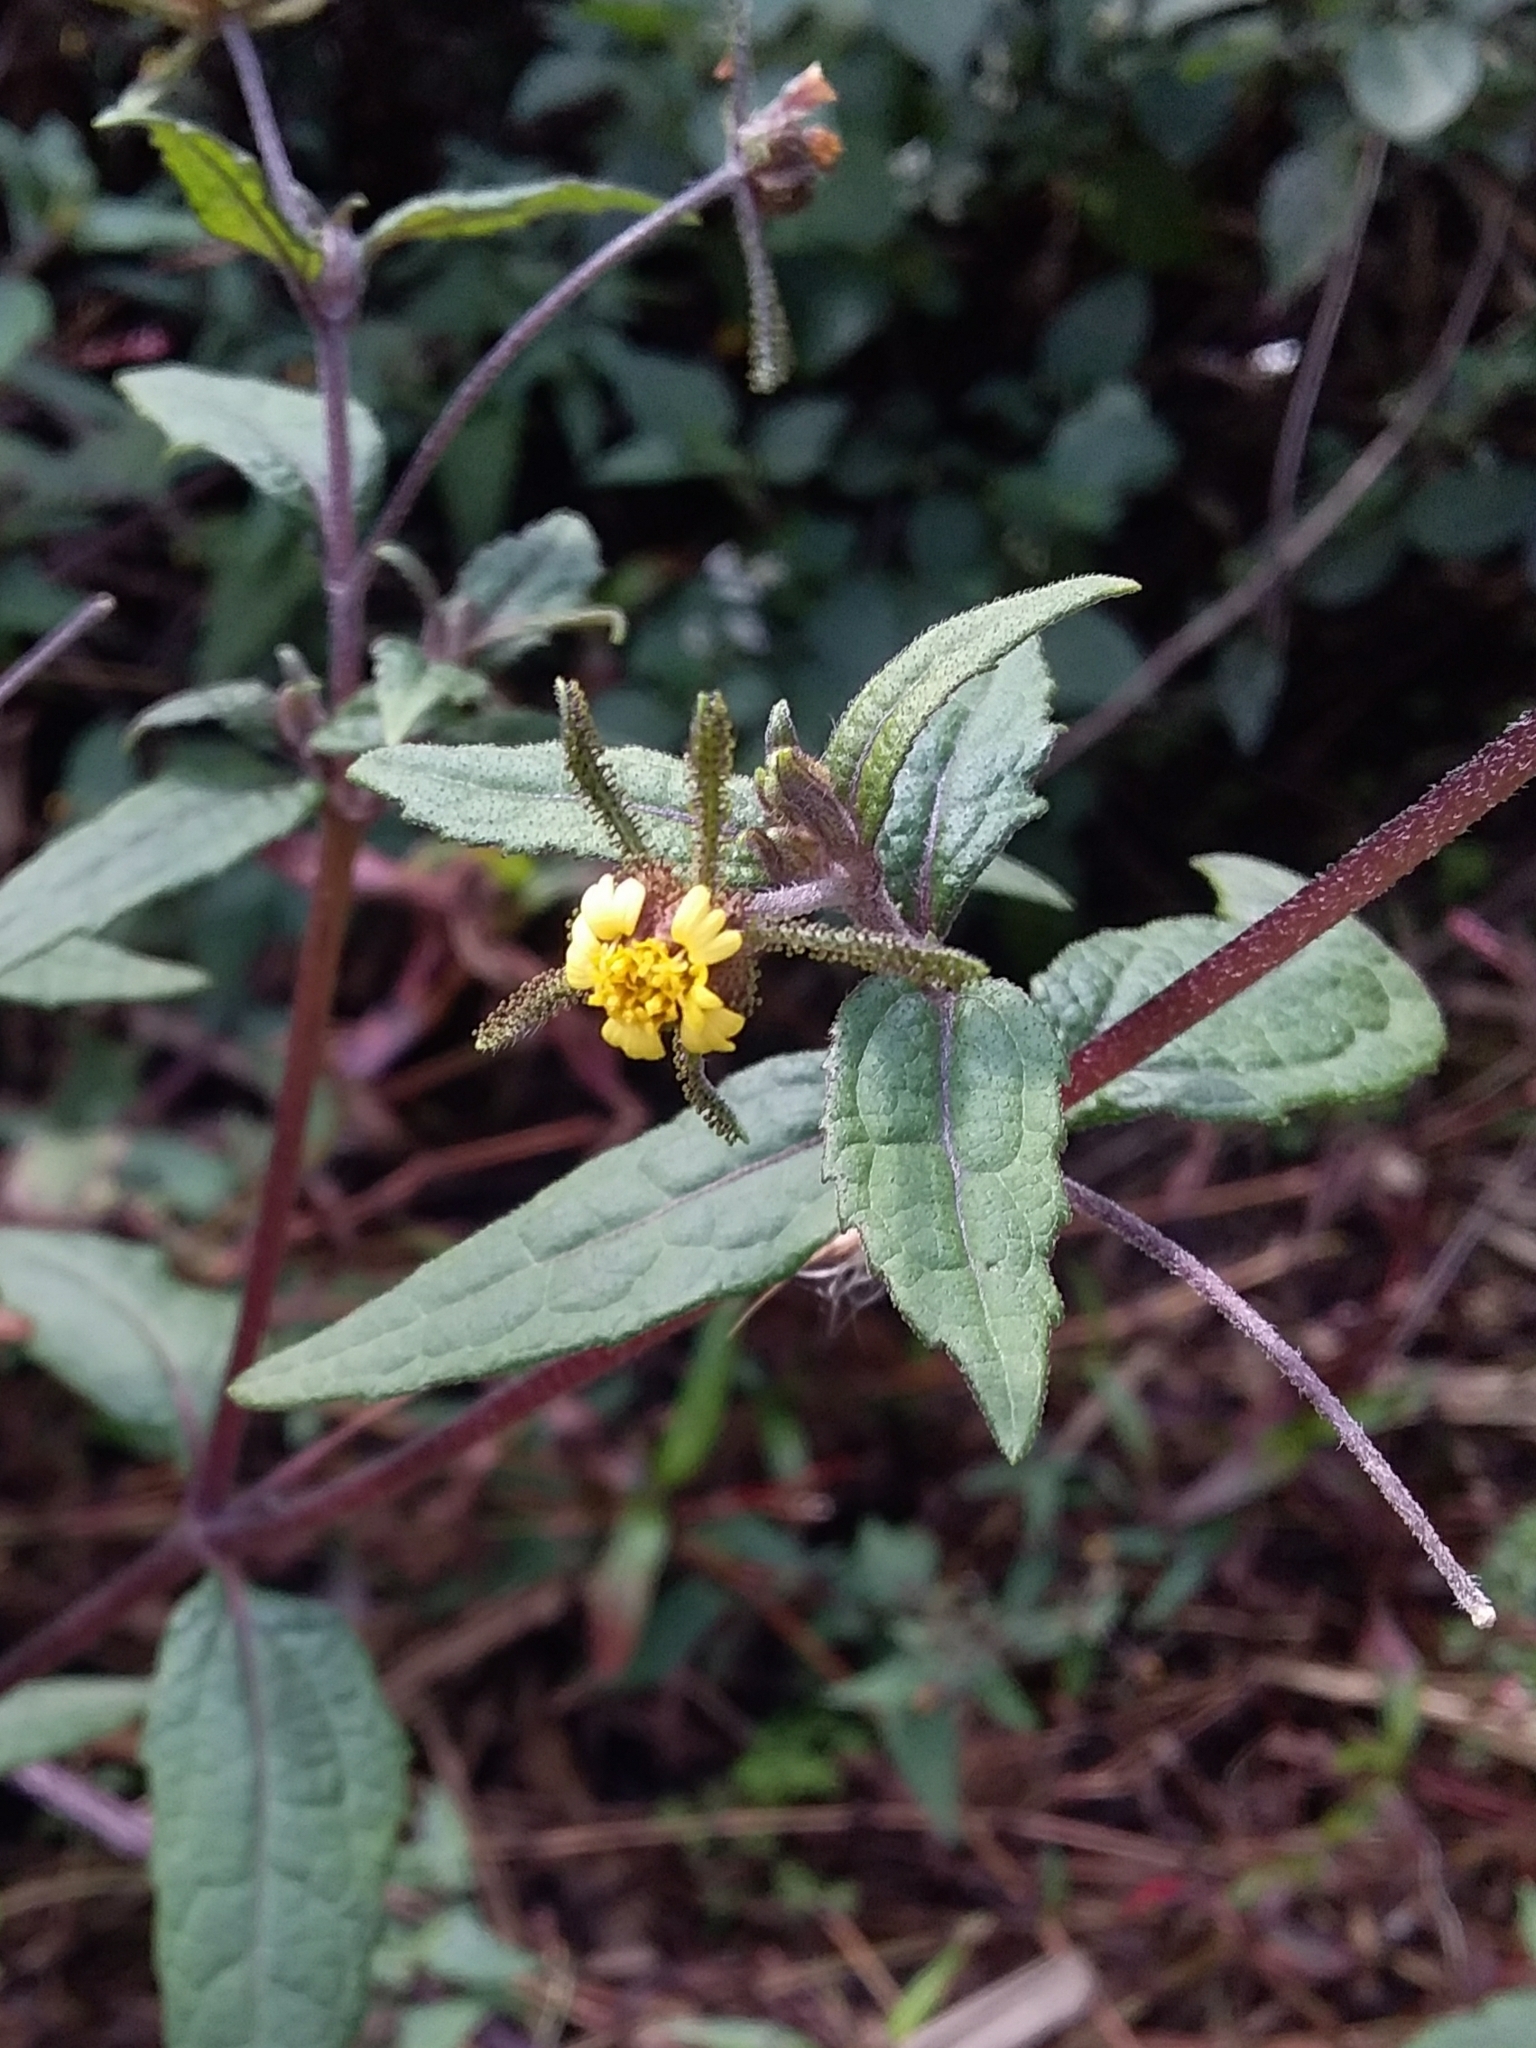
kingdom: Plantae
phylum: Tracheophyta
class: Magnoliopsida
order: Asterales
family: Asteraceae
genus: Sigesbeckia
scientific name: Sigesbeckia orientalis
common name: Eastern st paul's-wort
